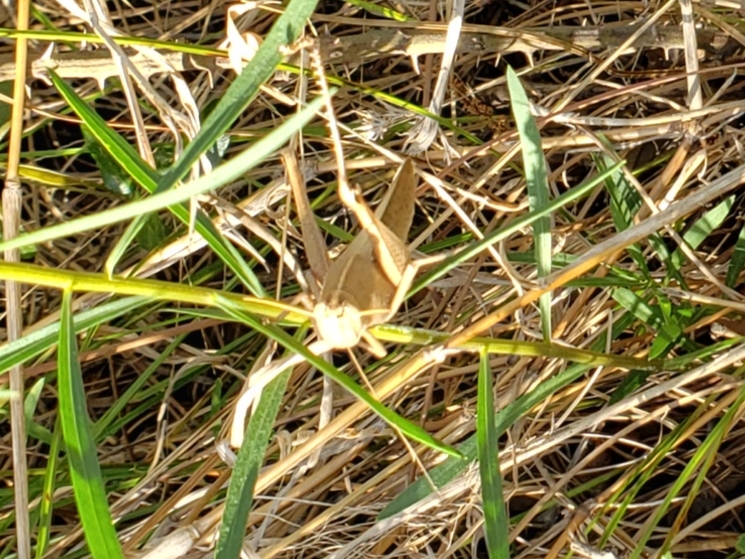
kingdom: Animalia
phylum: Arthropoda
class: Insecta
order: Orthoptera
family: Acrididae
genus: Schistocerca
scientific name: Schistocerca damnifica
